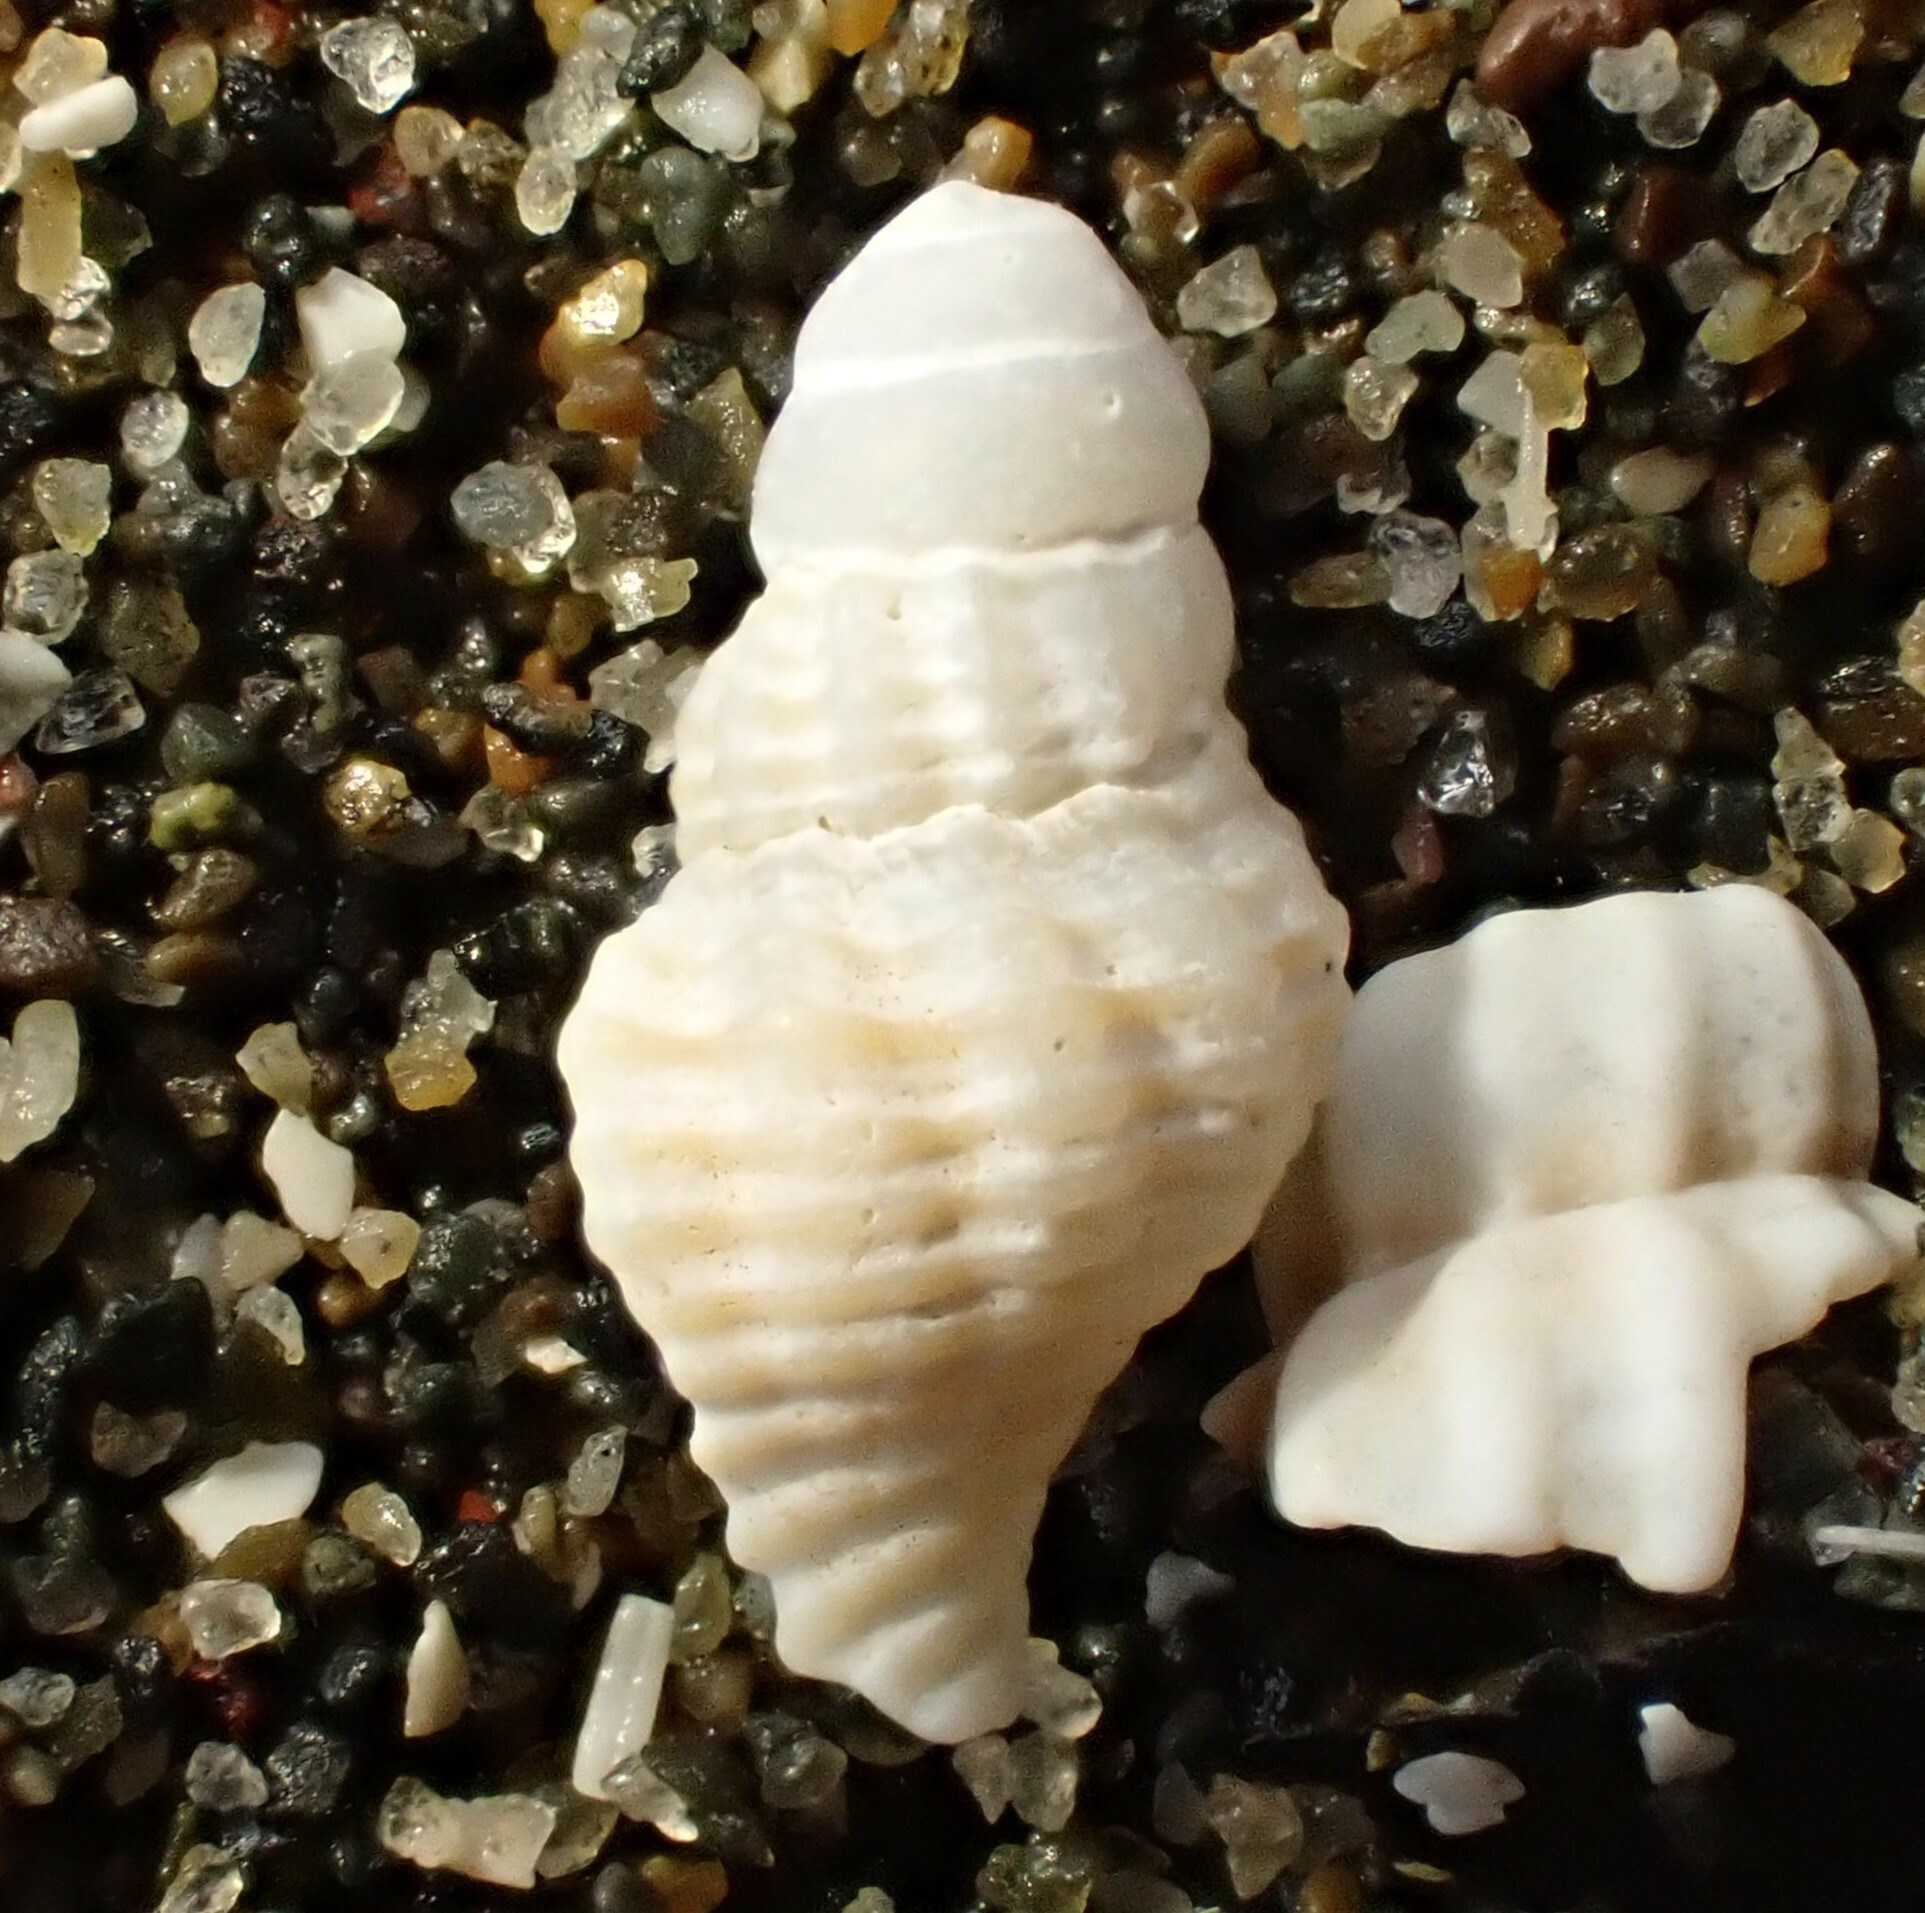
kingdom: Animalia
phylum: Mollusca
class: Gastropoda
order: Neogastropoda
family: Austrosiphonidae
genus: Penion
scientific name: Penion sulcatus
